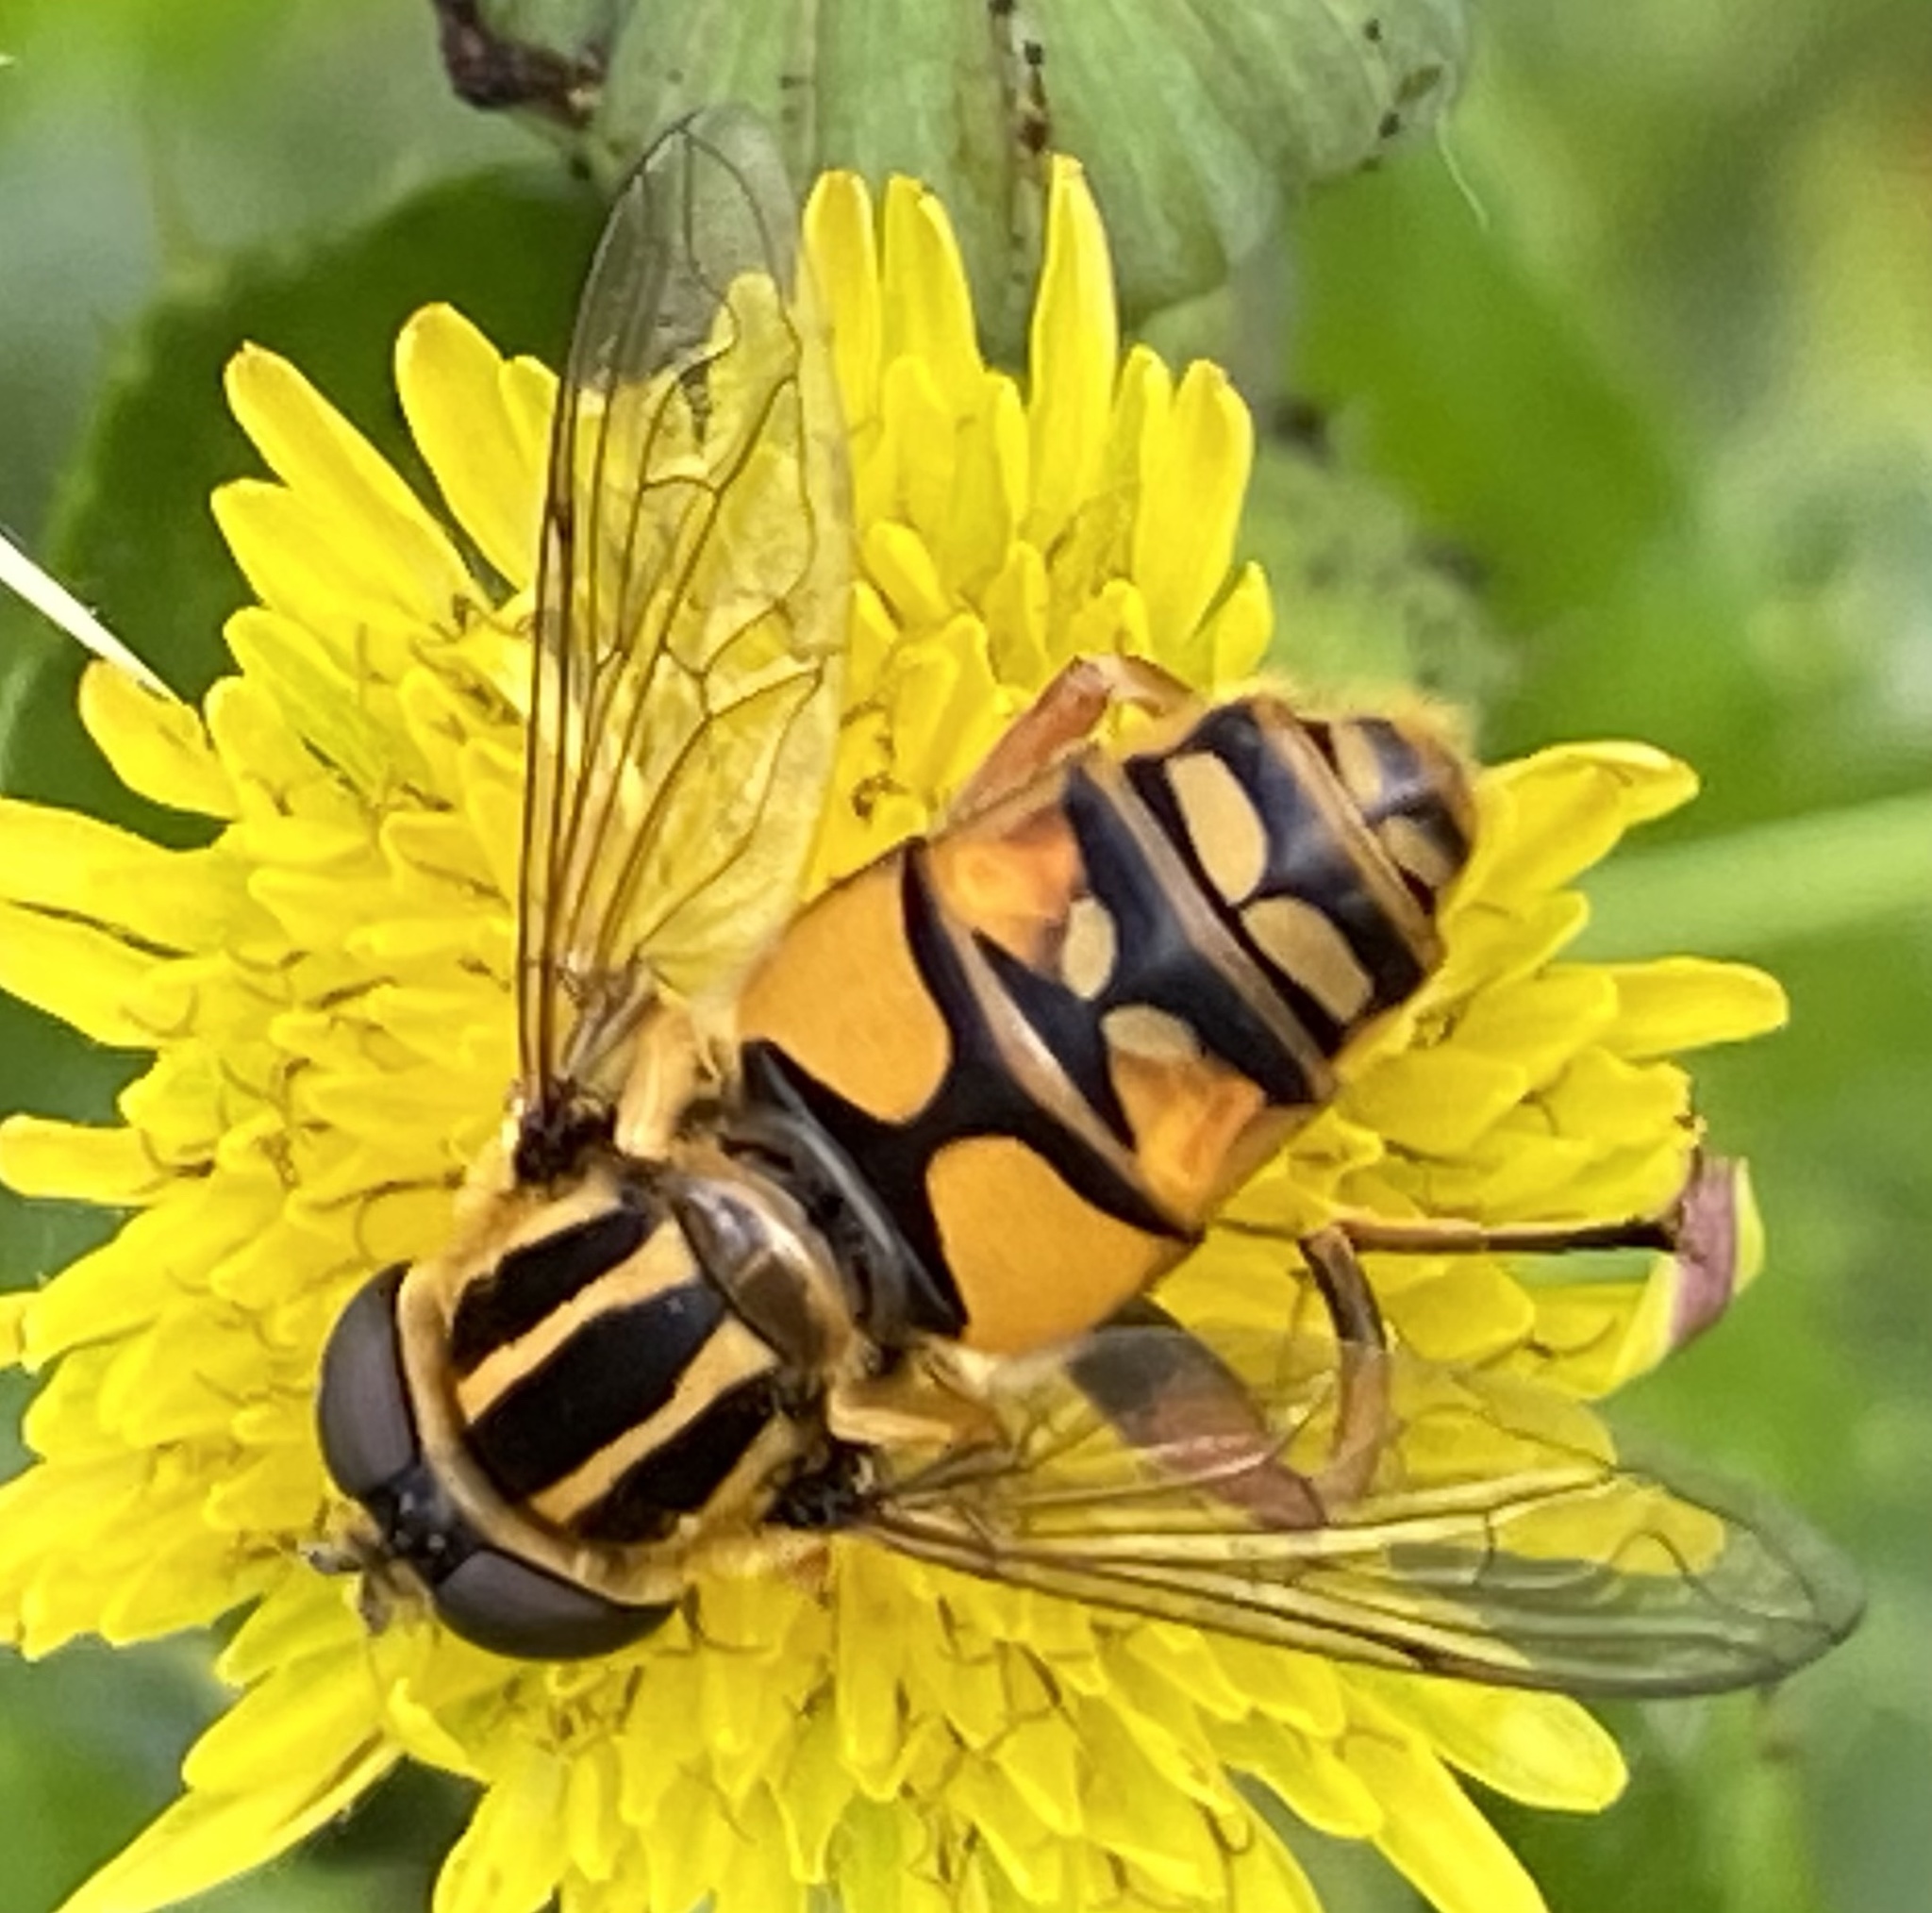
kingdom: Animalia
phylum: Arthropoda
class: Insecta
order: Diptera
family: Syrphidae
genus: Helophilus
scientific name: Helophilus pendulus
